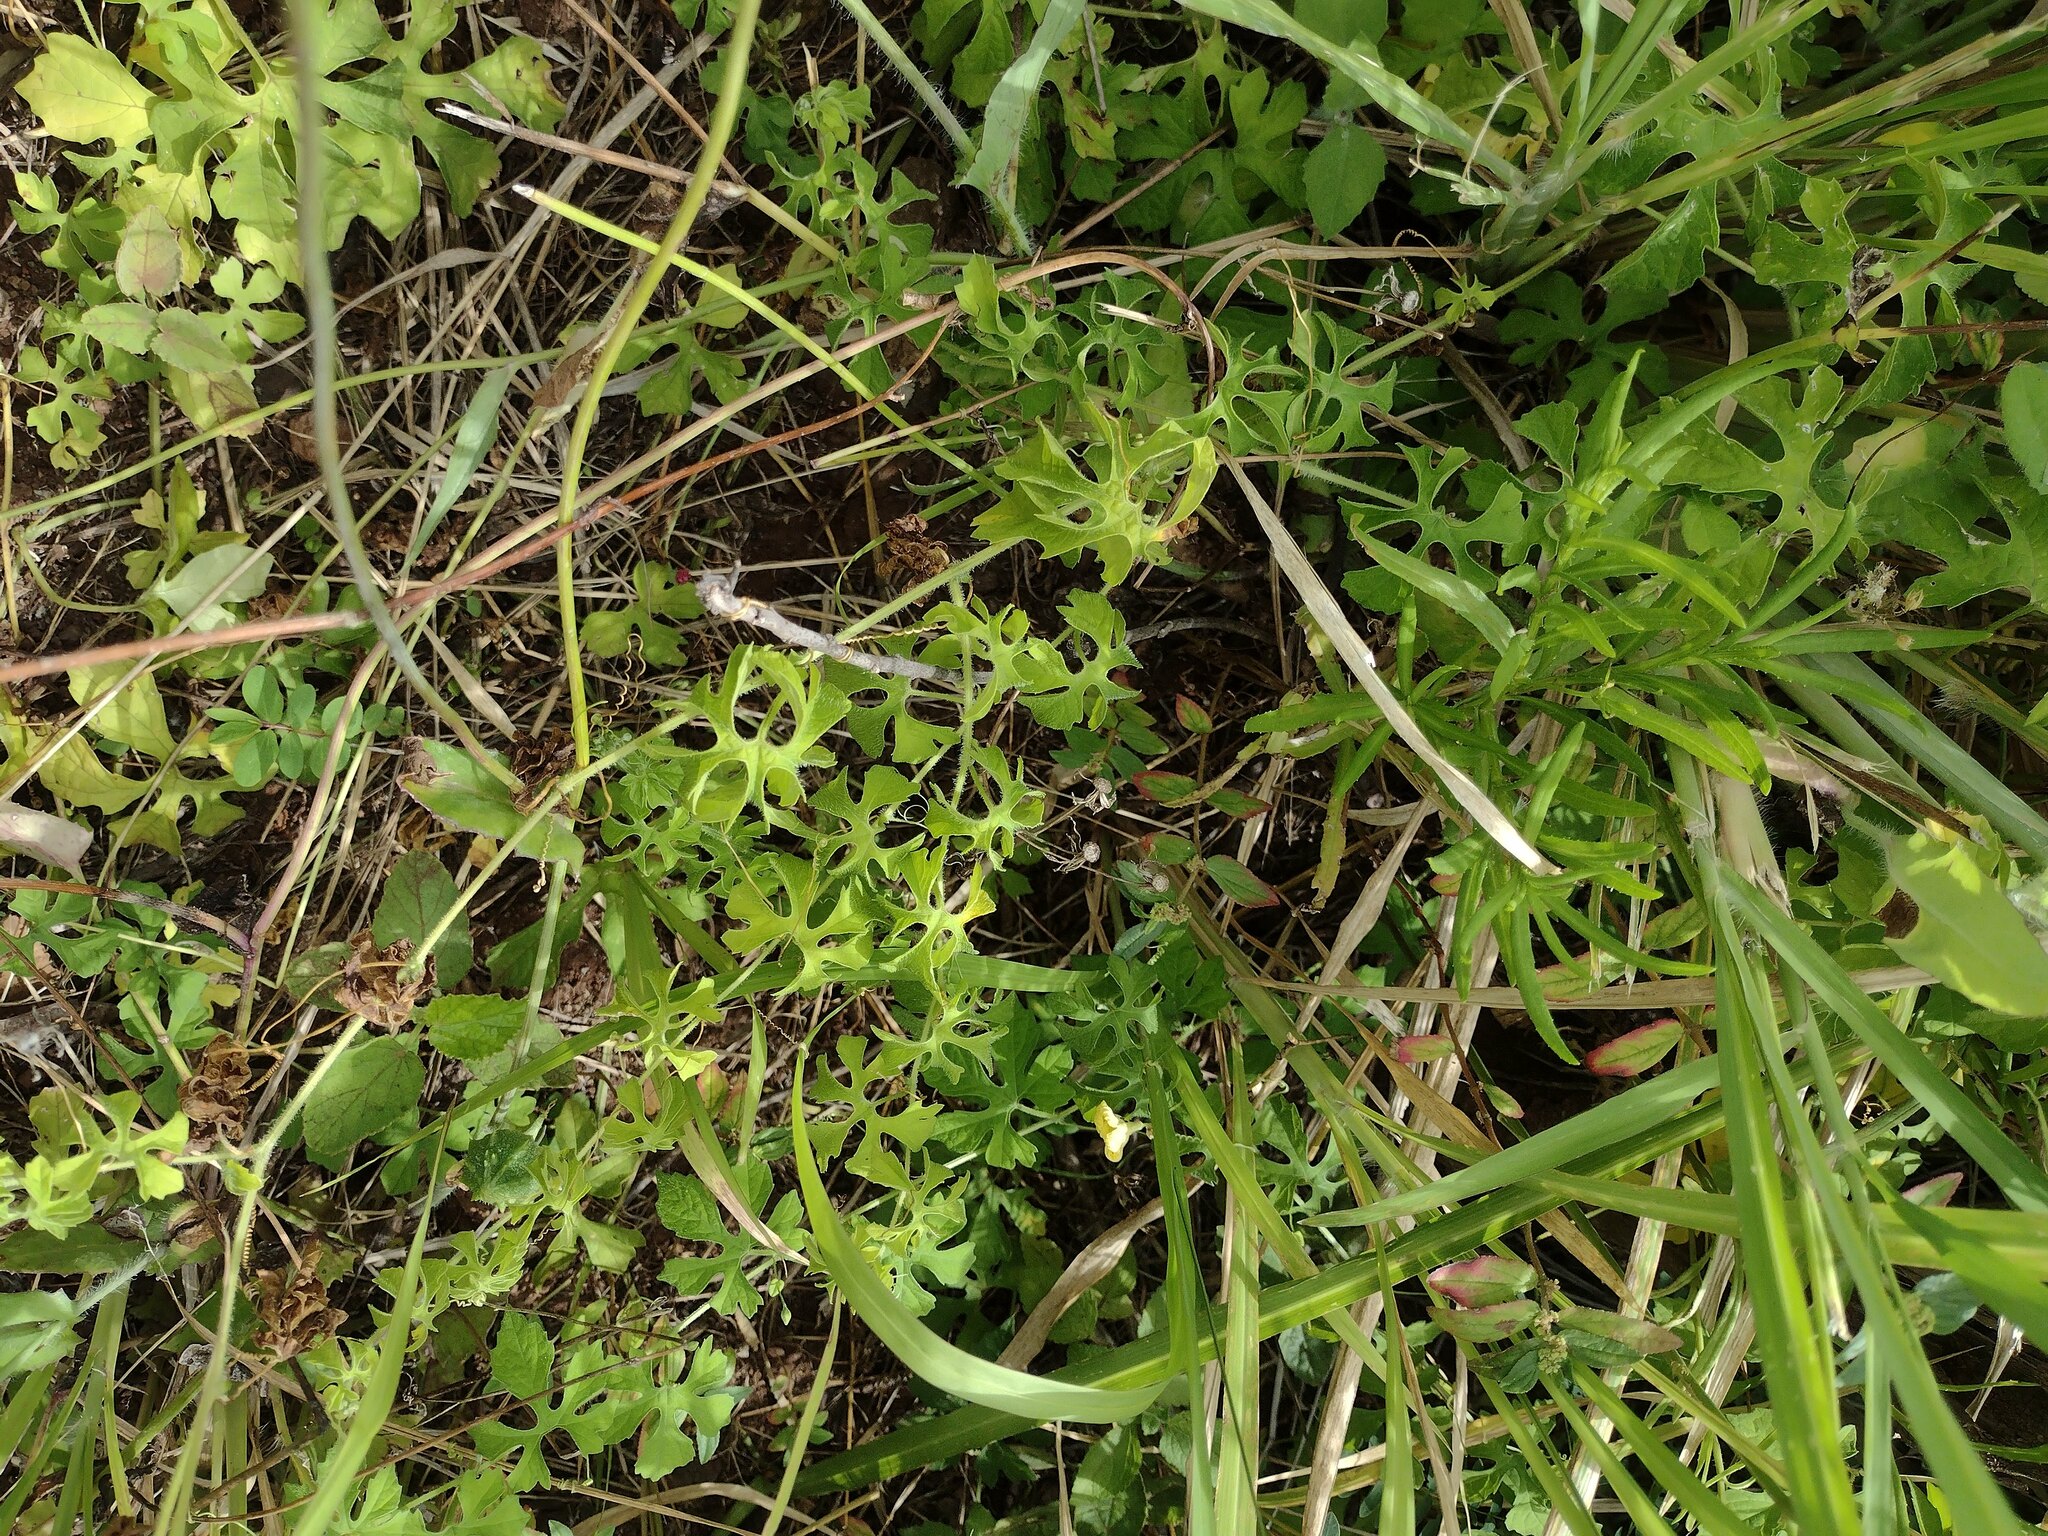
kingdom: Plantae
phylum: Tracheophyta
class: Magnoliopsida
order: Cucurbitales
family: Cucurbitaceae
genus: Momordica
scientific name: Momordica charantia
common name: Balsampear
